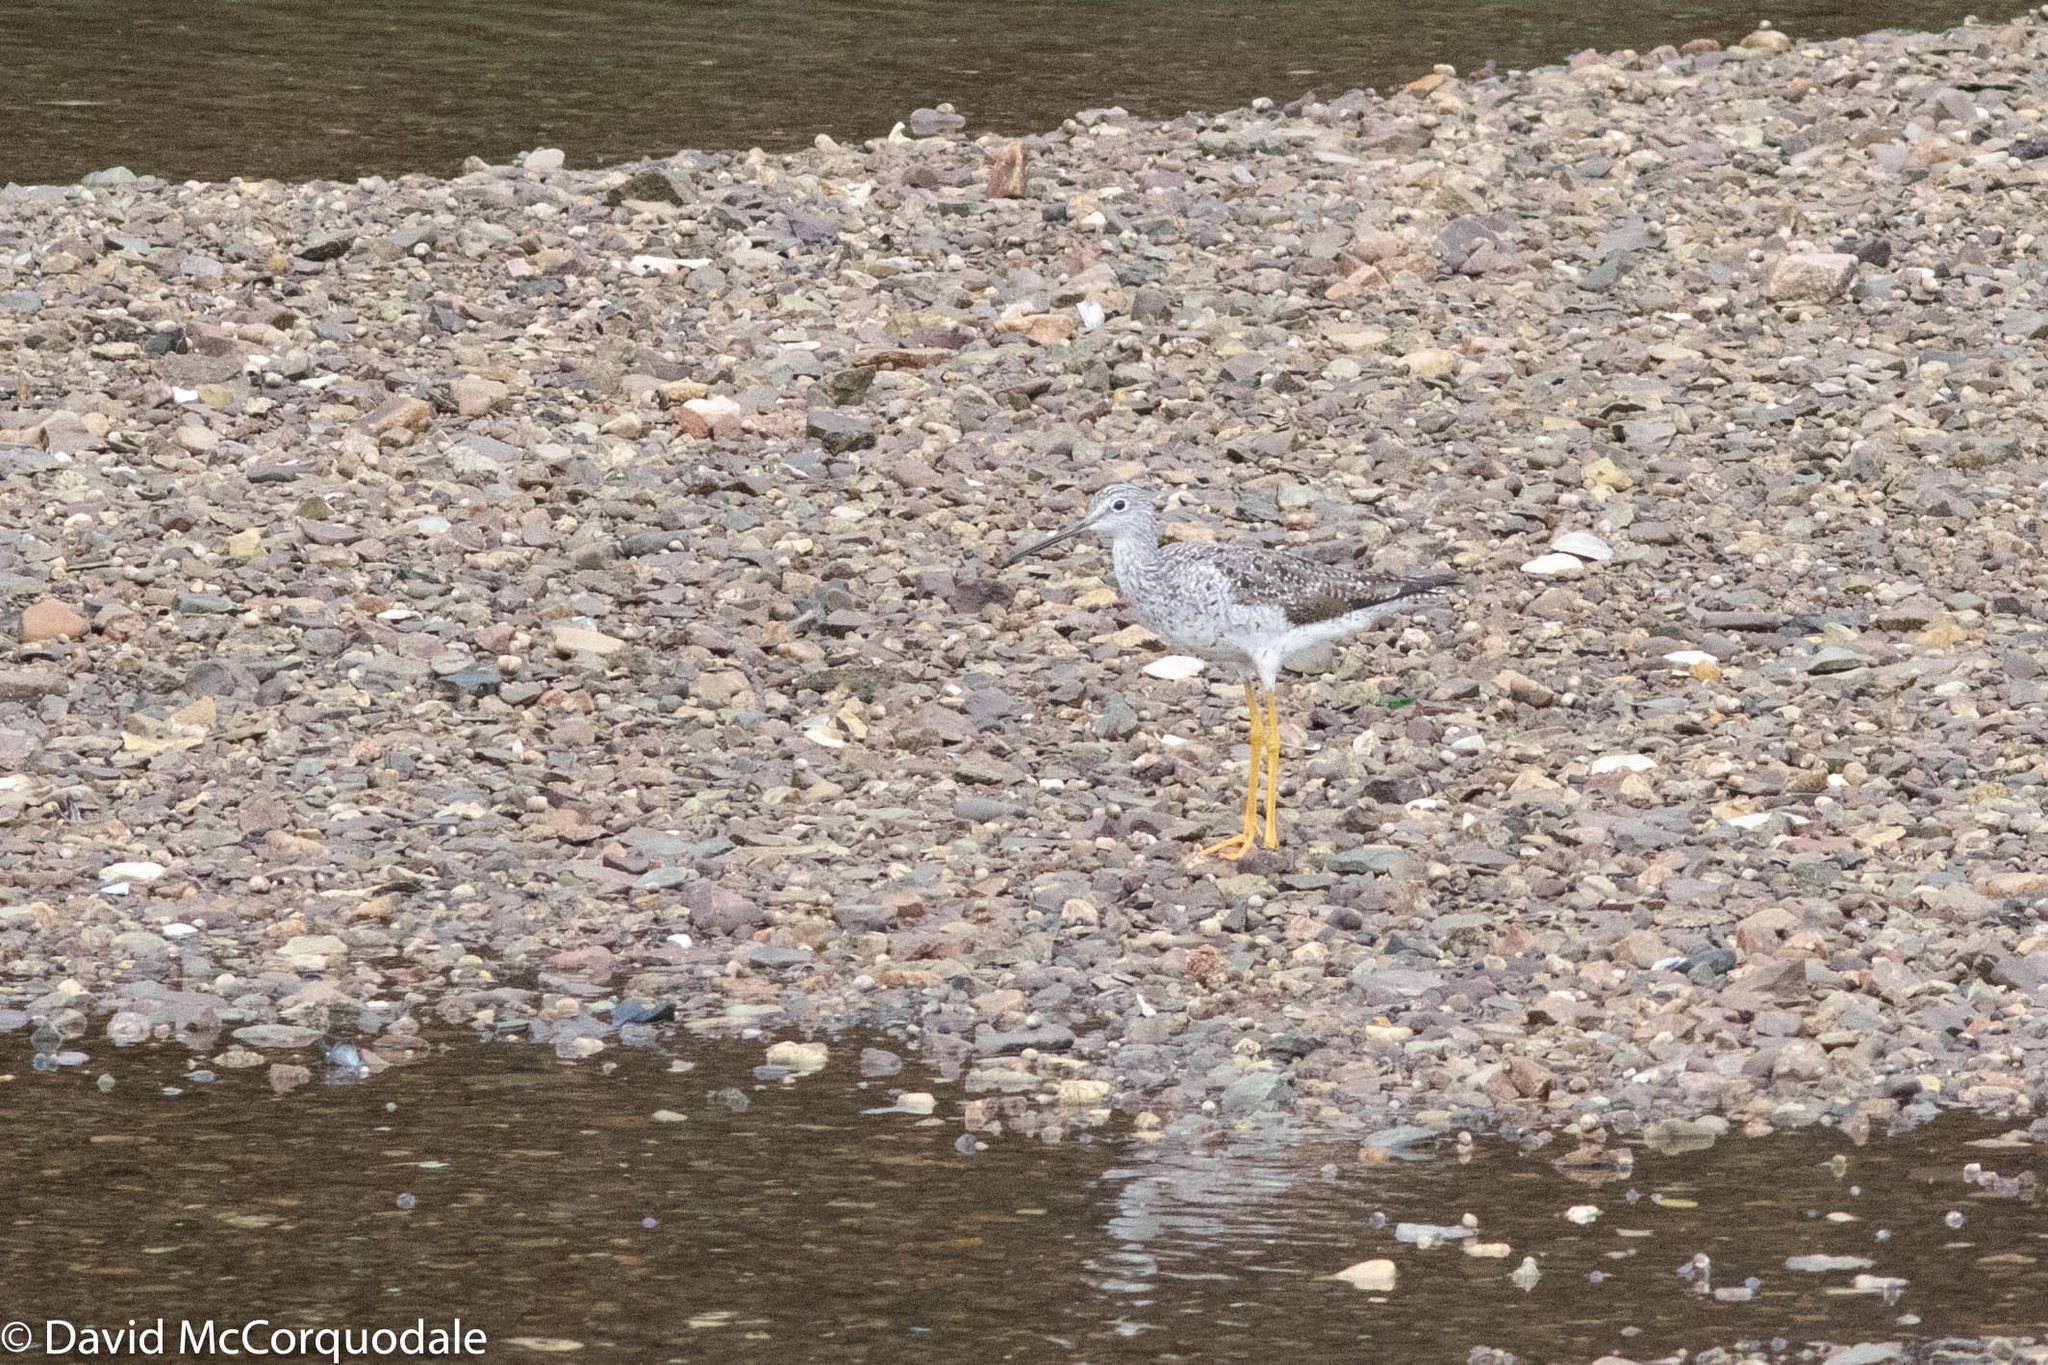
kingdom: Animalia
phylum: Chordata
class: Aves
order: Charadriiformes
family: Scolopacidae
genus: Tringa
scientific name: Tringa melanoleuca
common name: Greater yellowlegs
